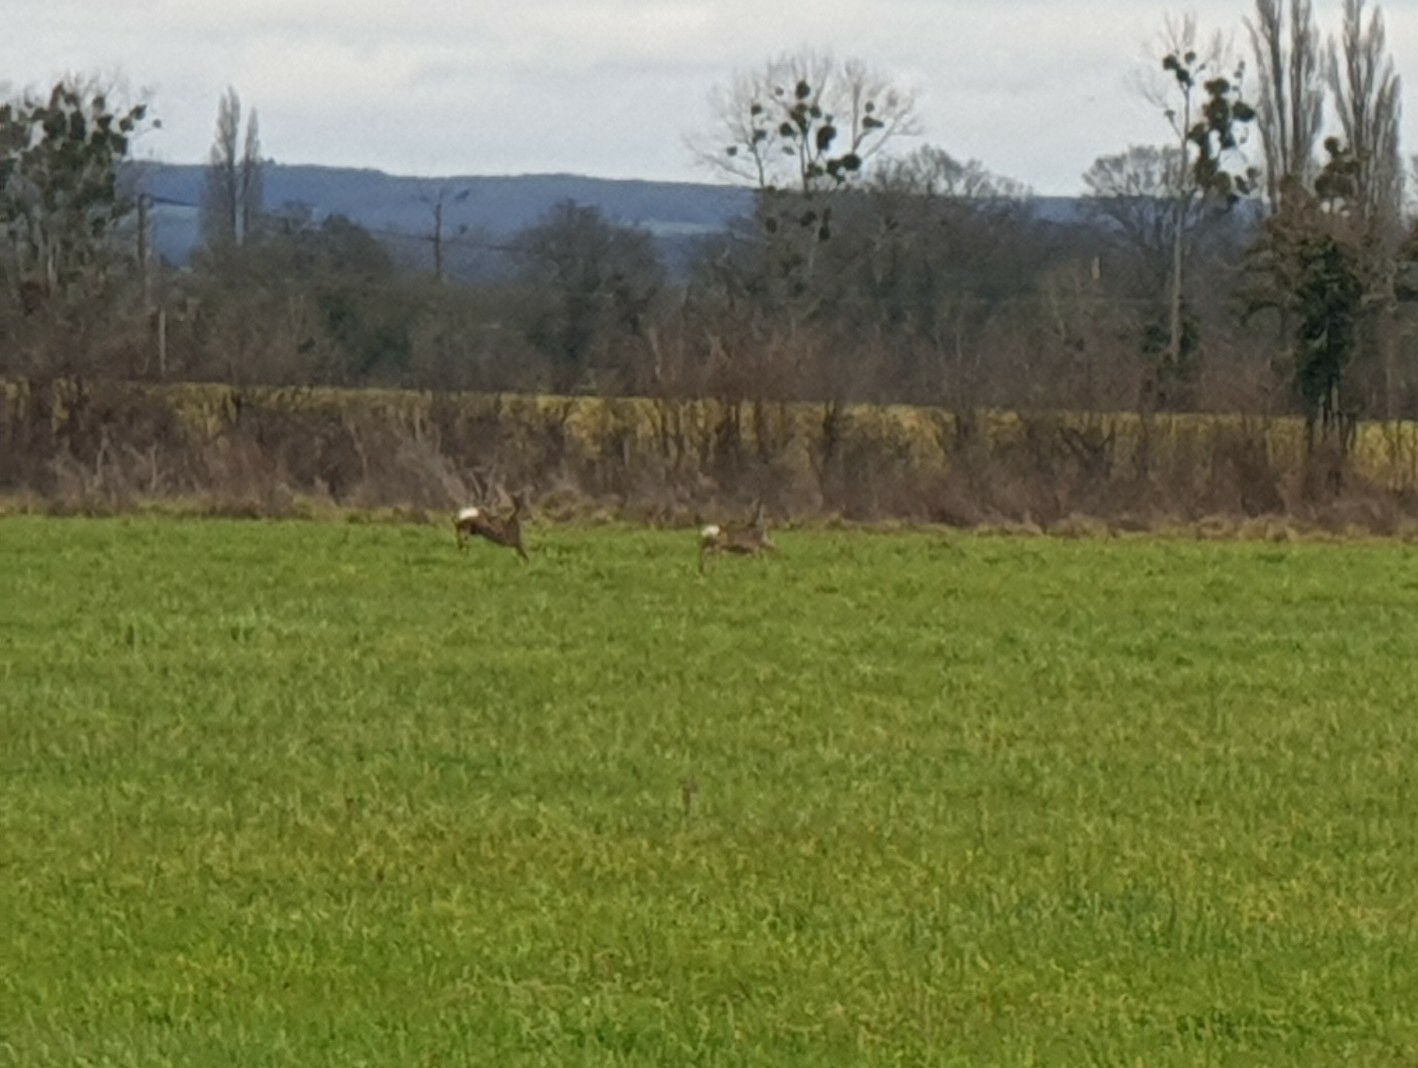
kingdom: Animalia
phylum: Chordata
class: Mammalia
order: Artiodactyla
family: Cervidae
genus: Capreolus
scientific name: Capreolus capreolus
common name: Western roe deer
